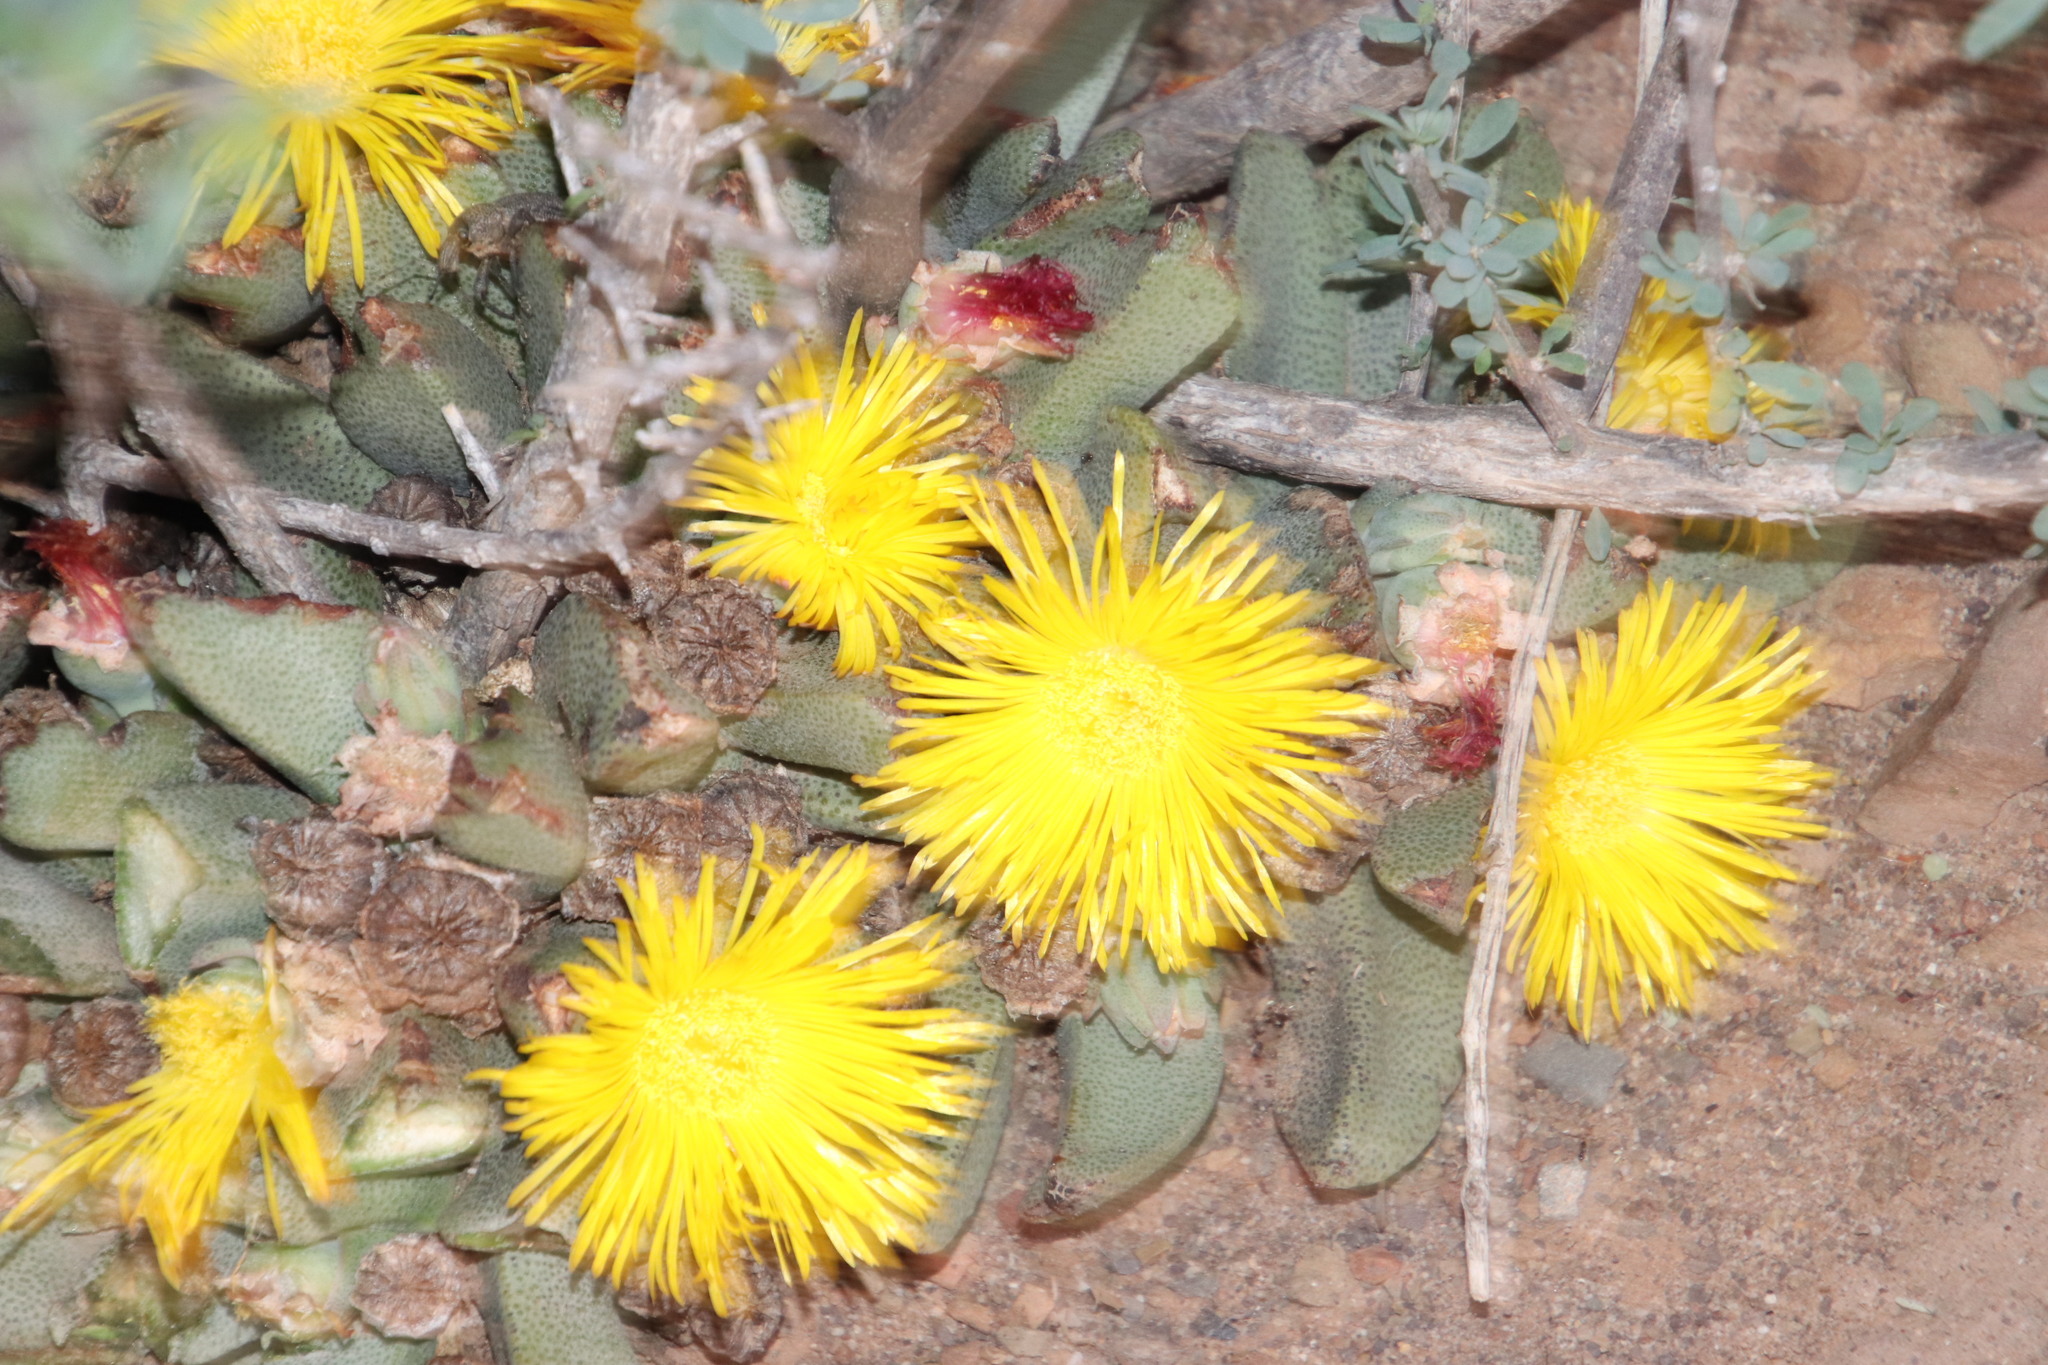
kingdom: Plantae
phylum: Tracheophyta
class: Magnoliopsida
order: Caryophyllales
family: Aizoaceae
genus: Pleiospilos
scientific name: Pleiospilos compactus
